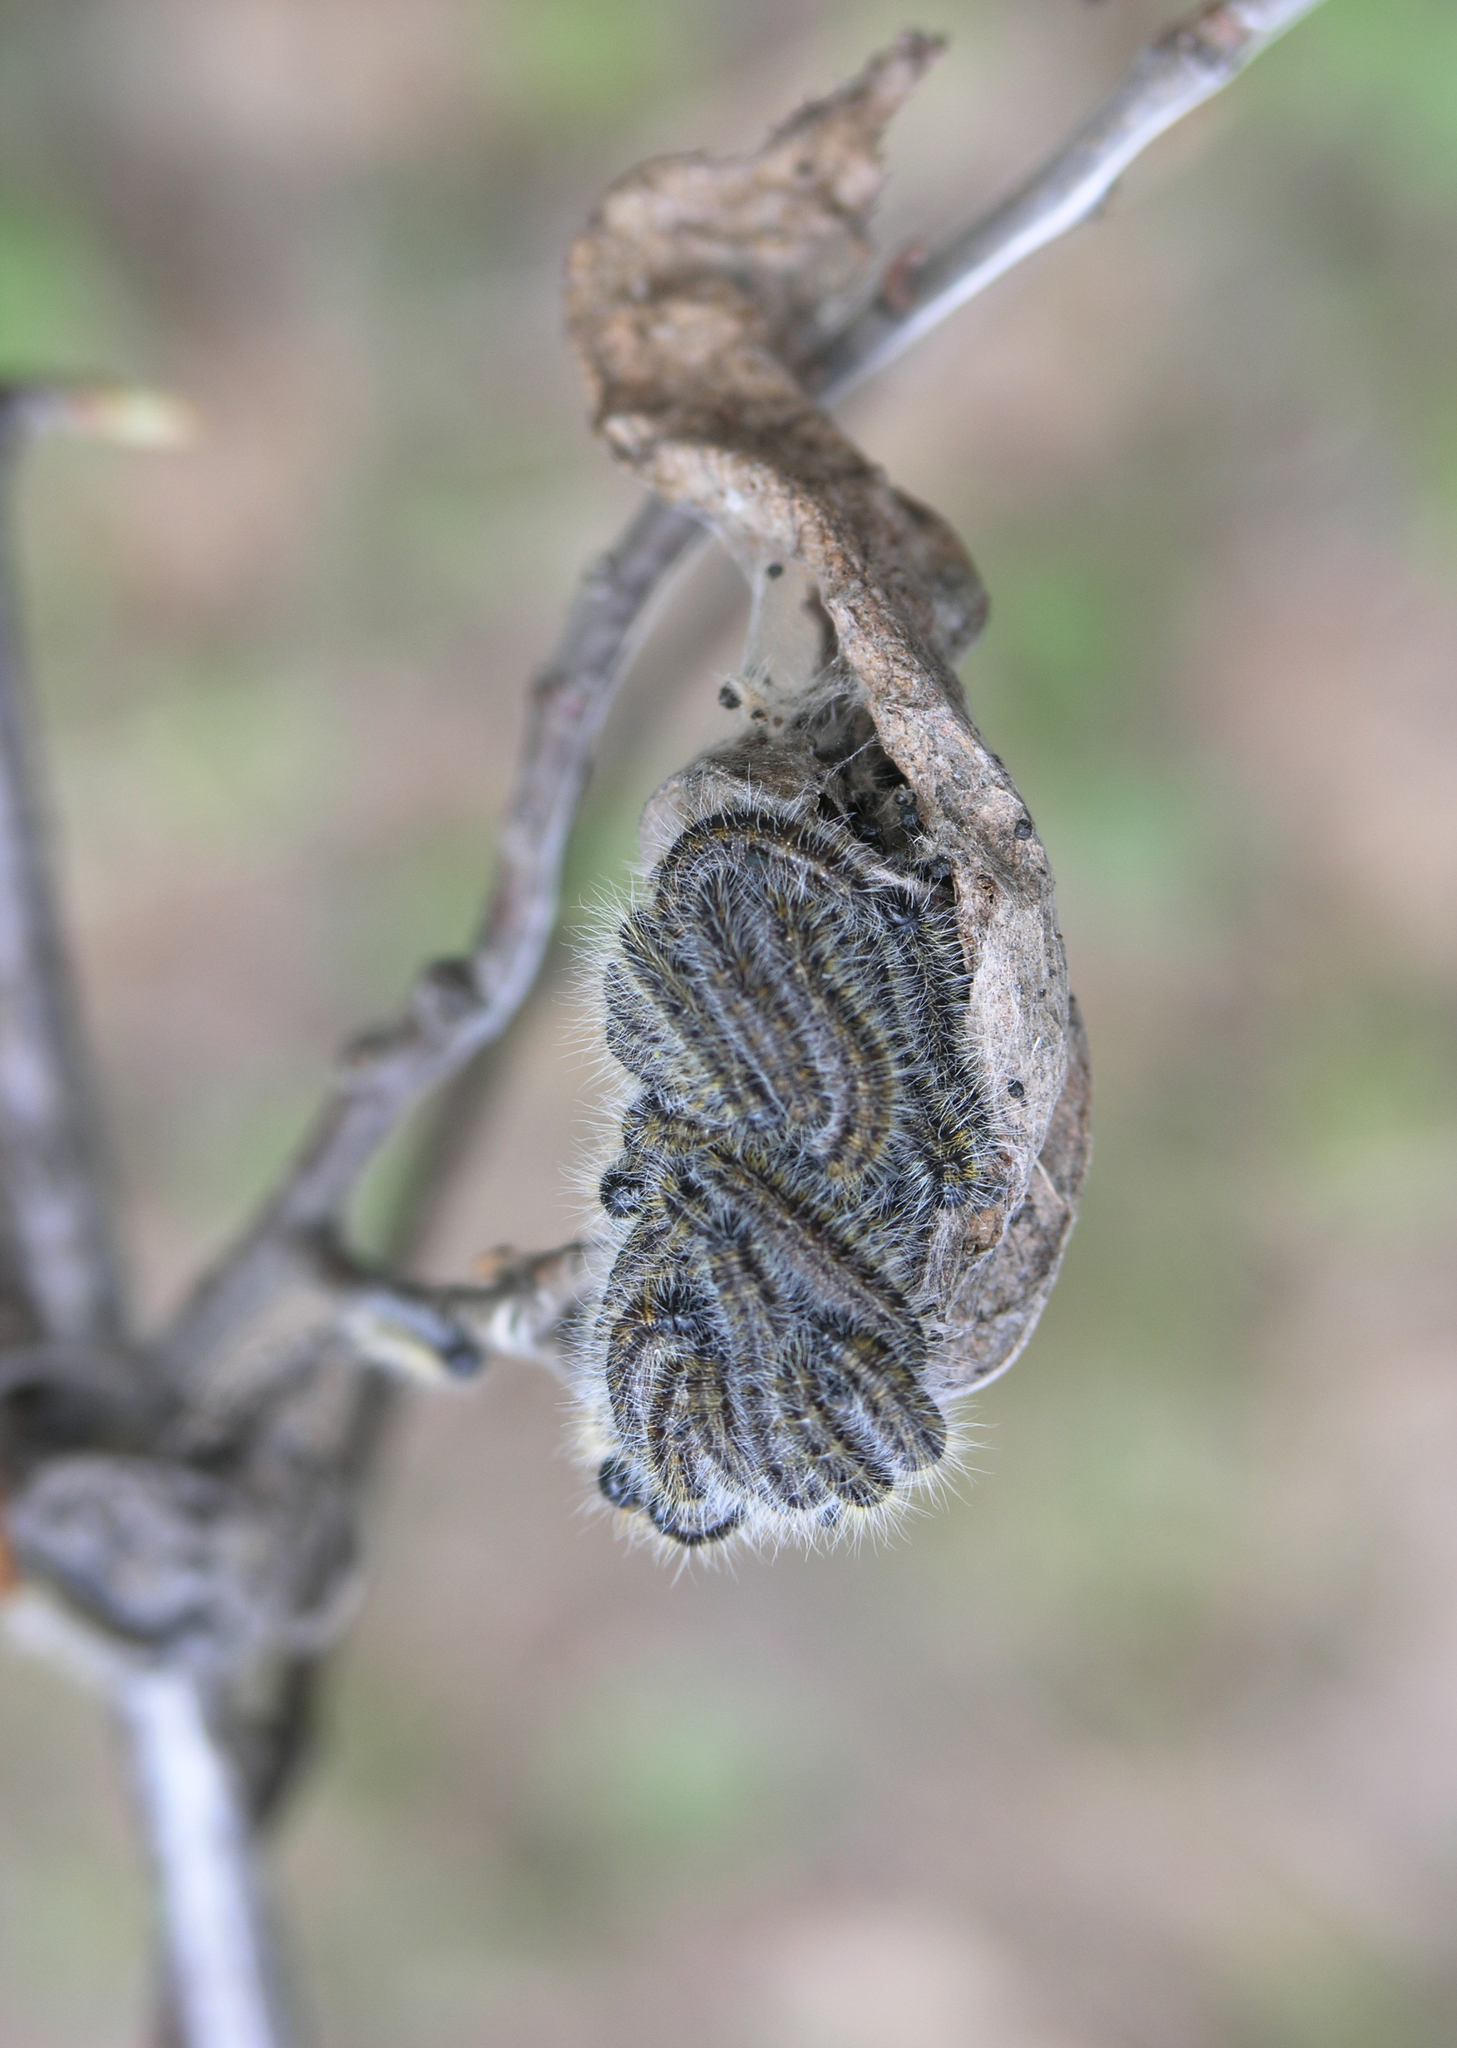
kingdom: Animalia
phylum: Arthropoda
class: Insecta
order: Lepidoptera
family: Pieridae
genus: Aporia
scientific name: Aporia crataegi
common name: Black-veined white
